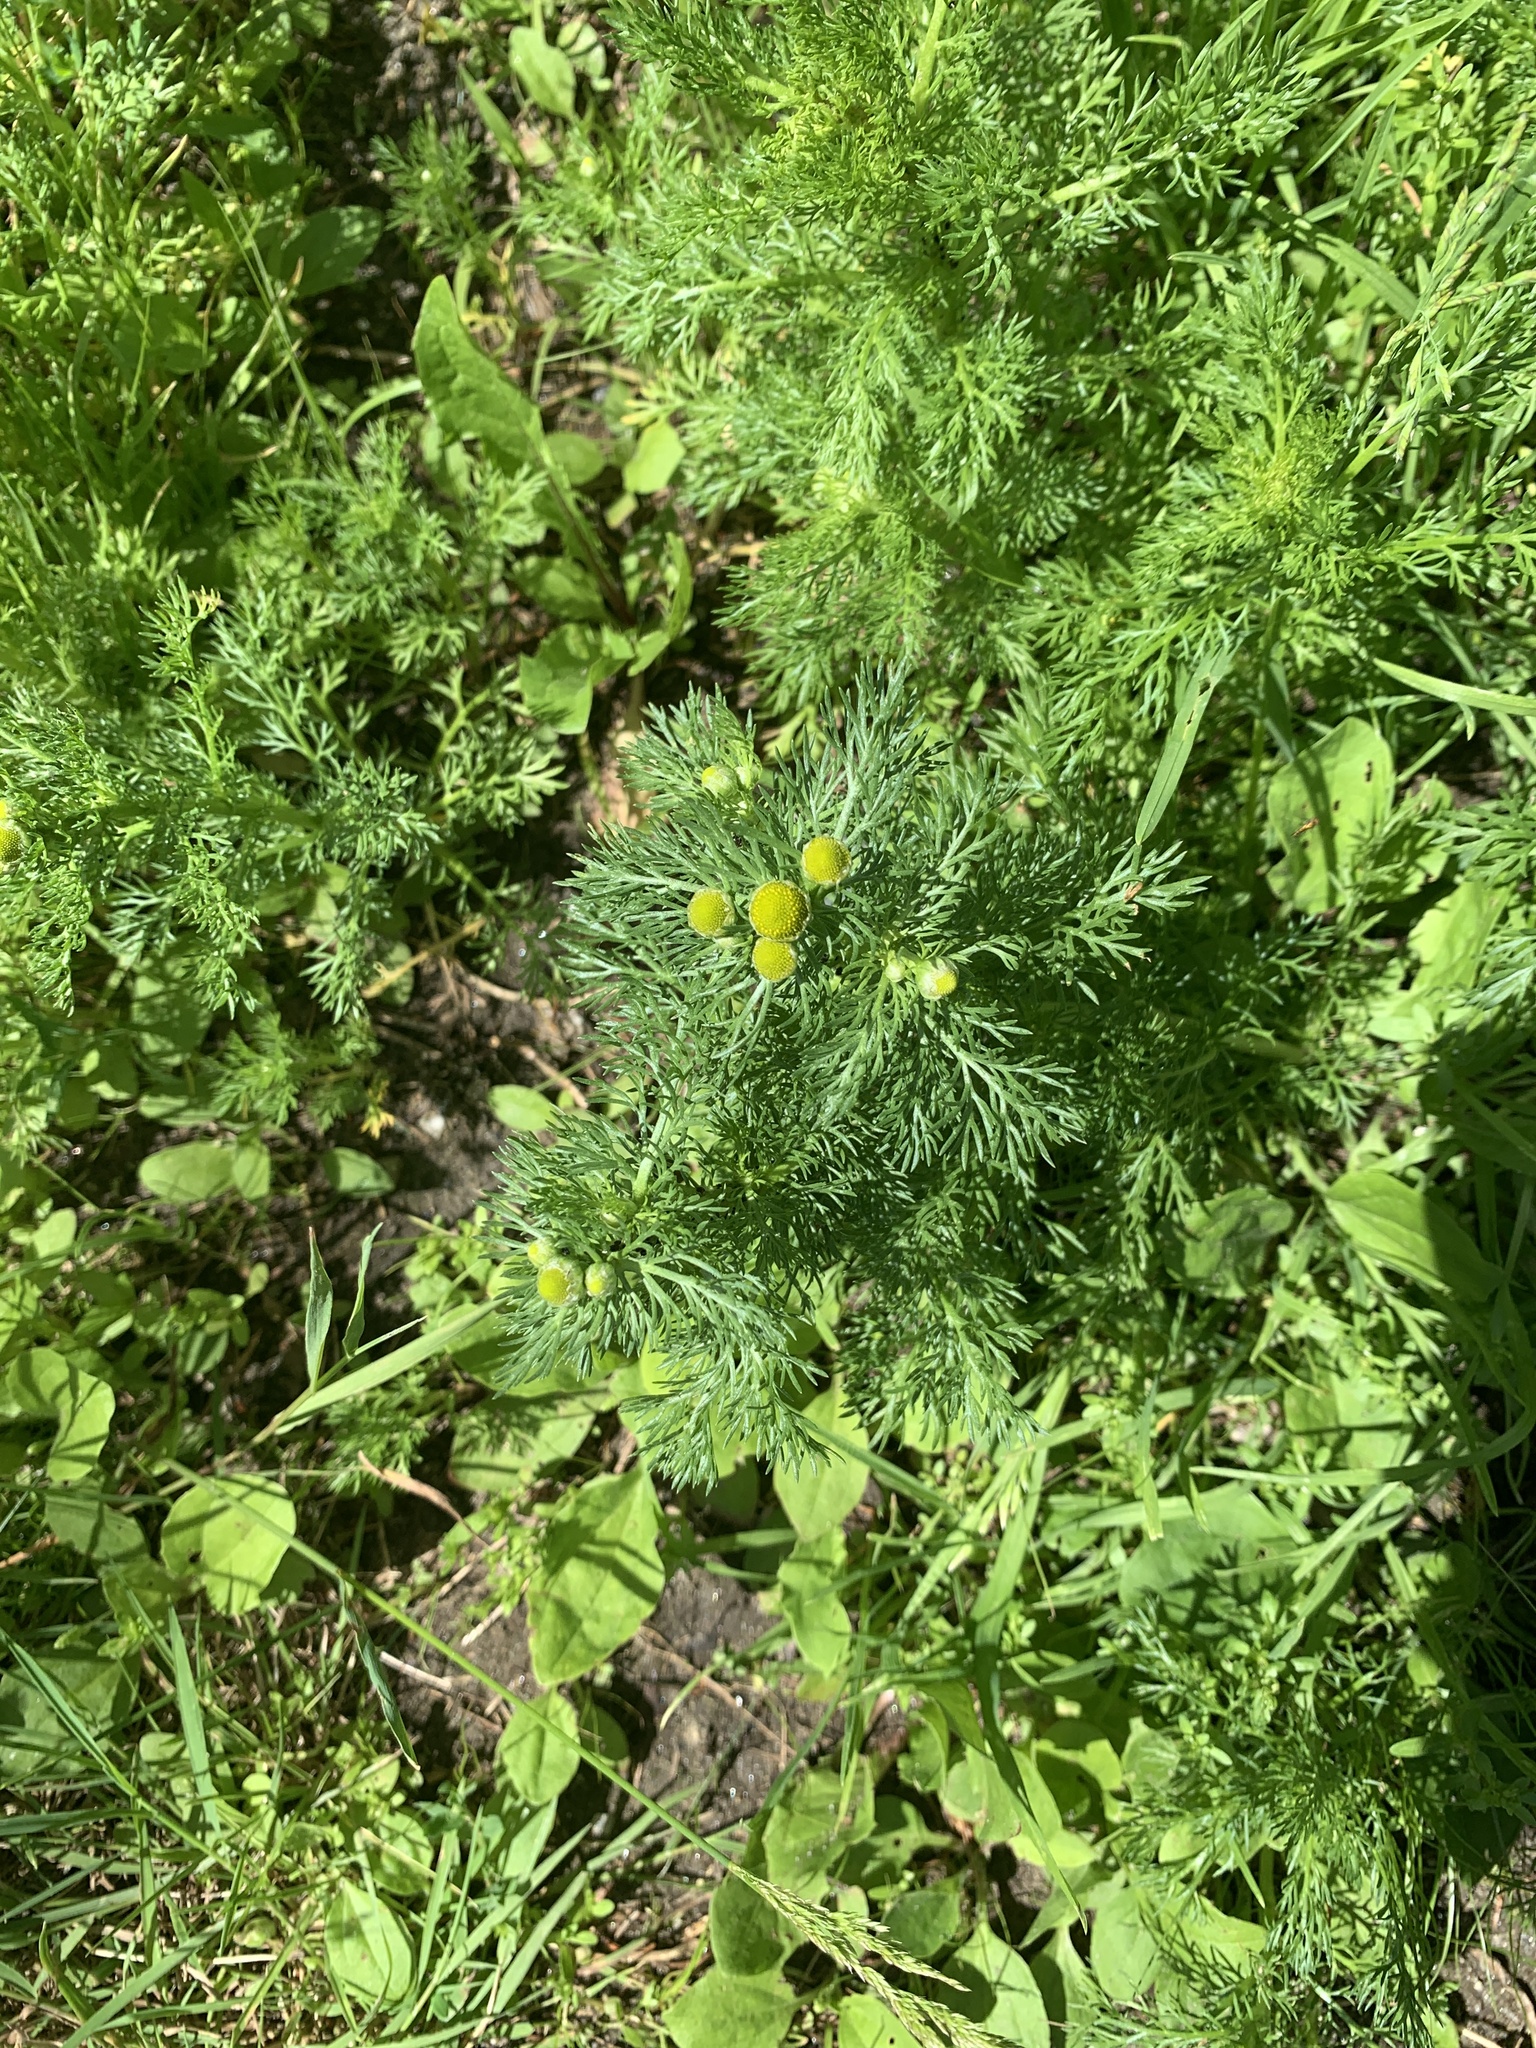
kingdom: Plantae
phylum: Tracheophyta
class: Magnoliopsida
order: Asterales
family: Asteraceae
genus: Matricaria
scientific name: Matricaria discoidea
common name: Disc mayweed
